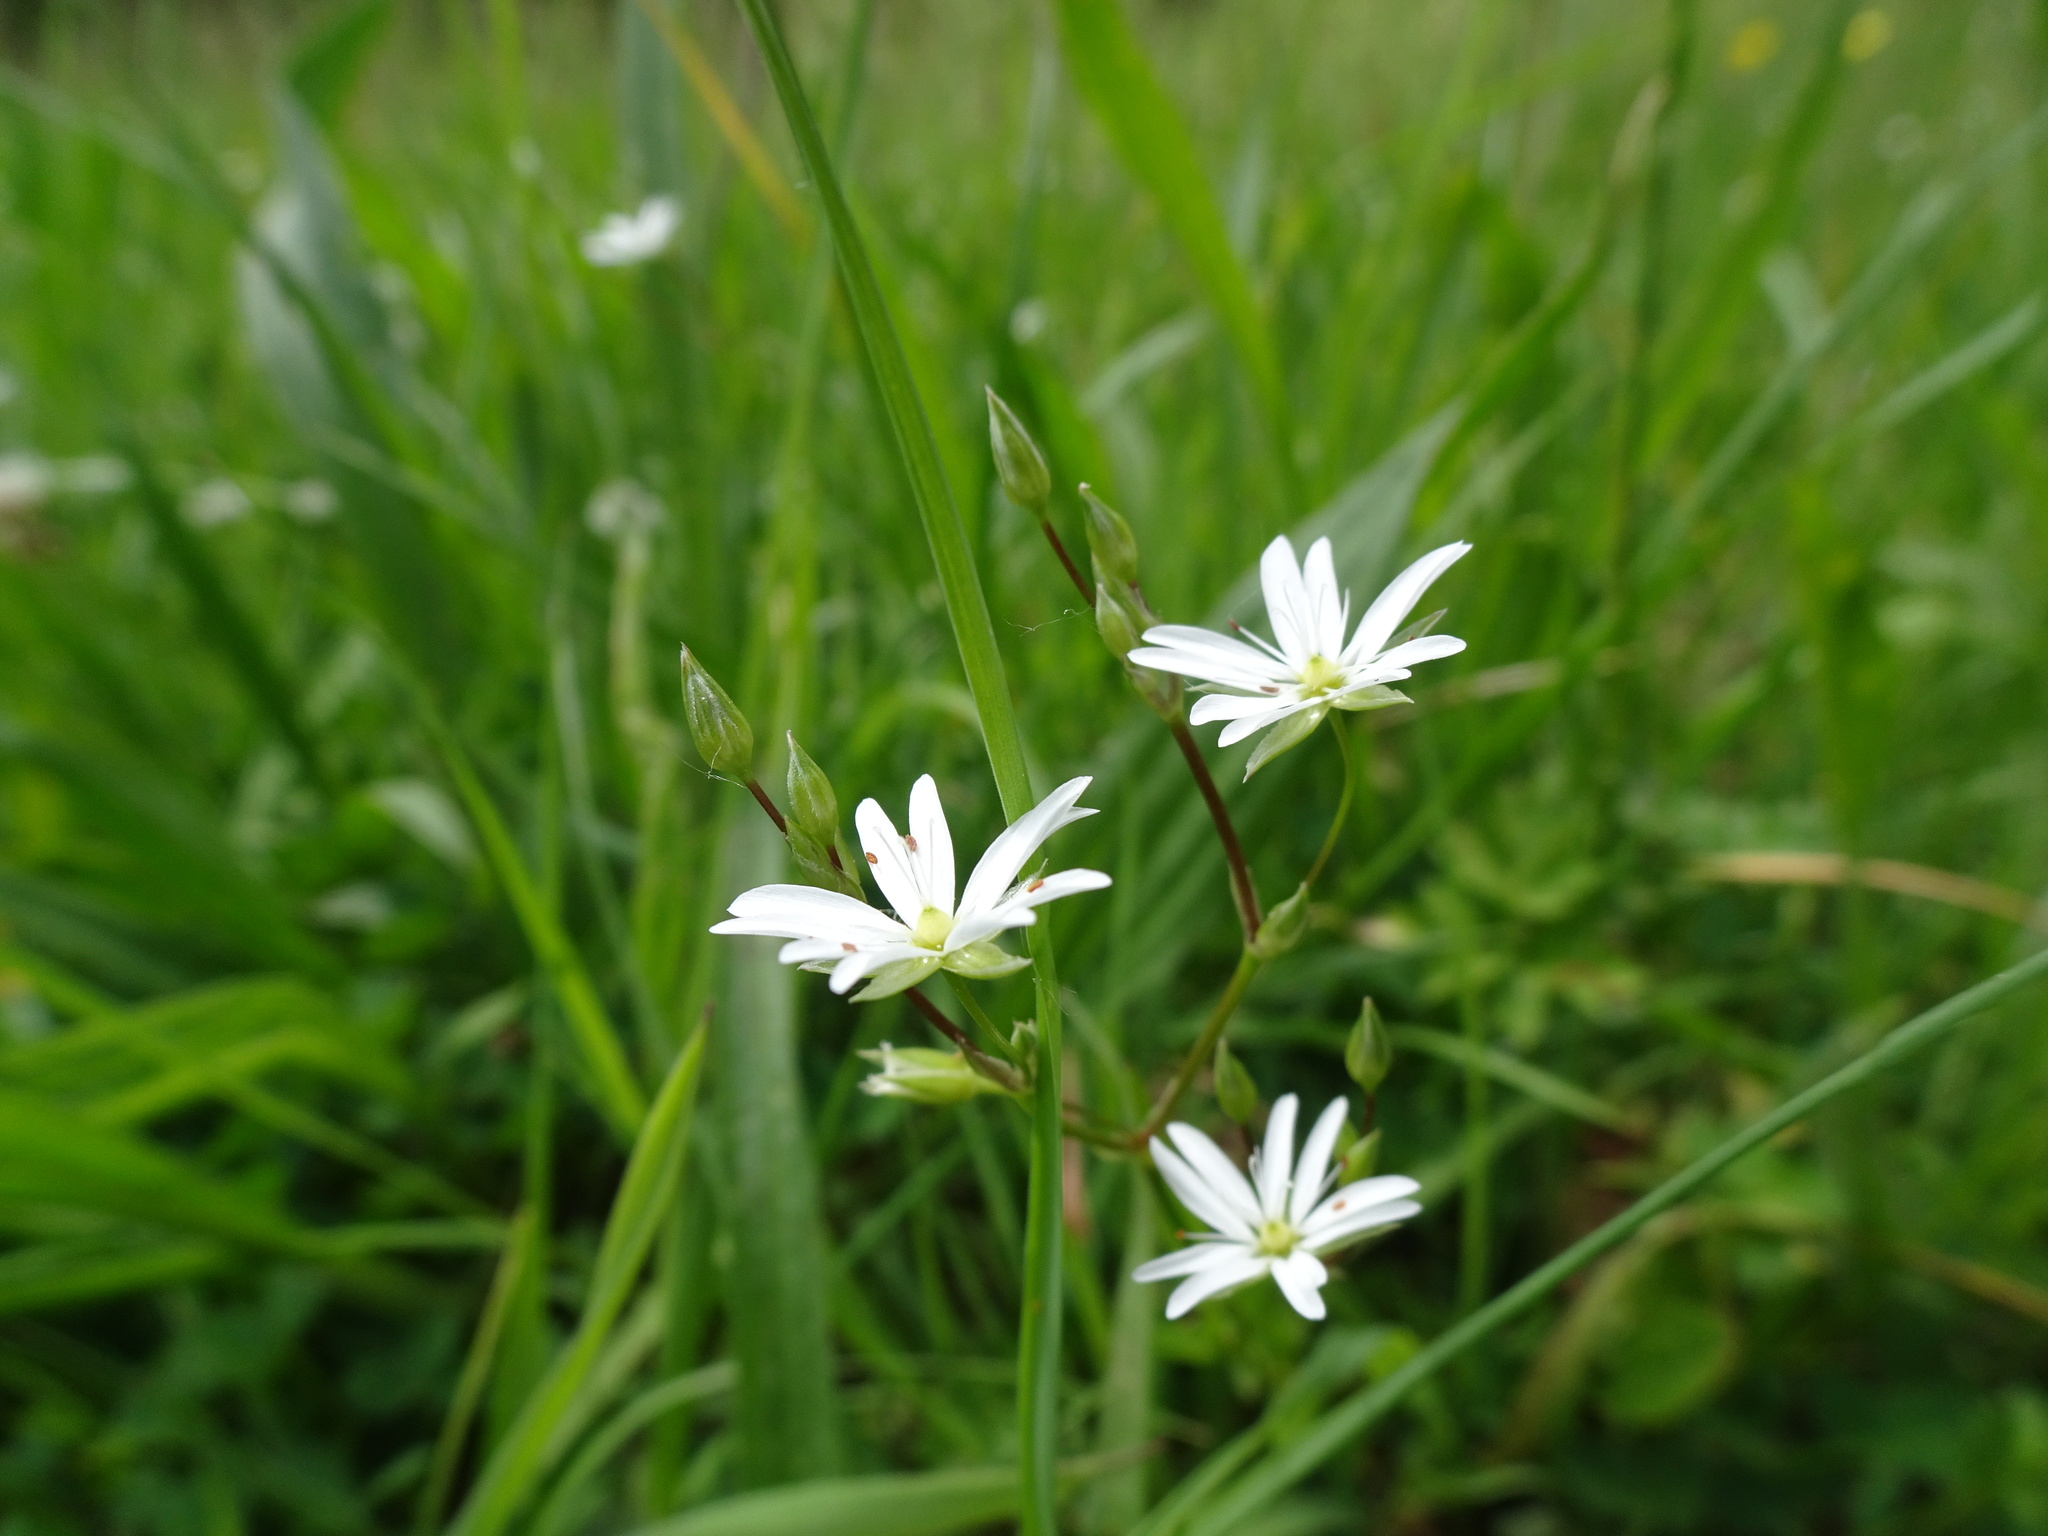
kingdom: Plantae
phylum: Tracheophyta
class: Magnoliopsida
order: Caryophyllales
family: Caryophyllaceae
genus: Stellaria
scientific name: Stellaria graminea
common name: Grass-like starwort
